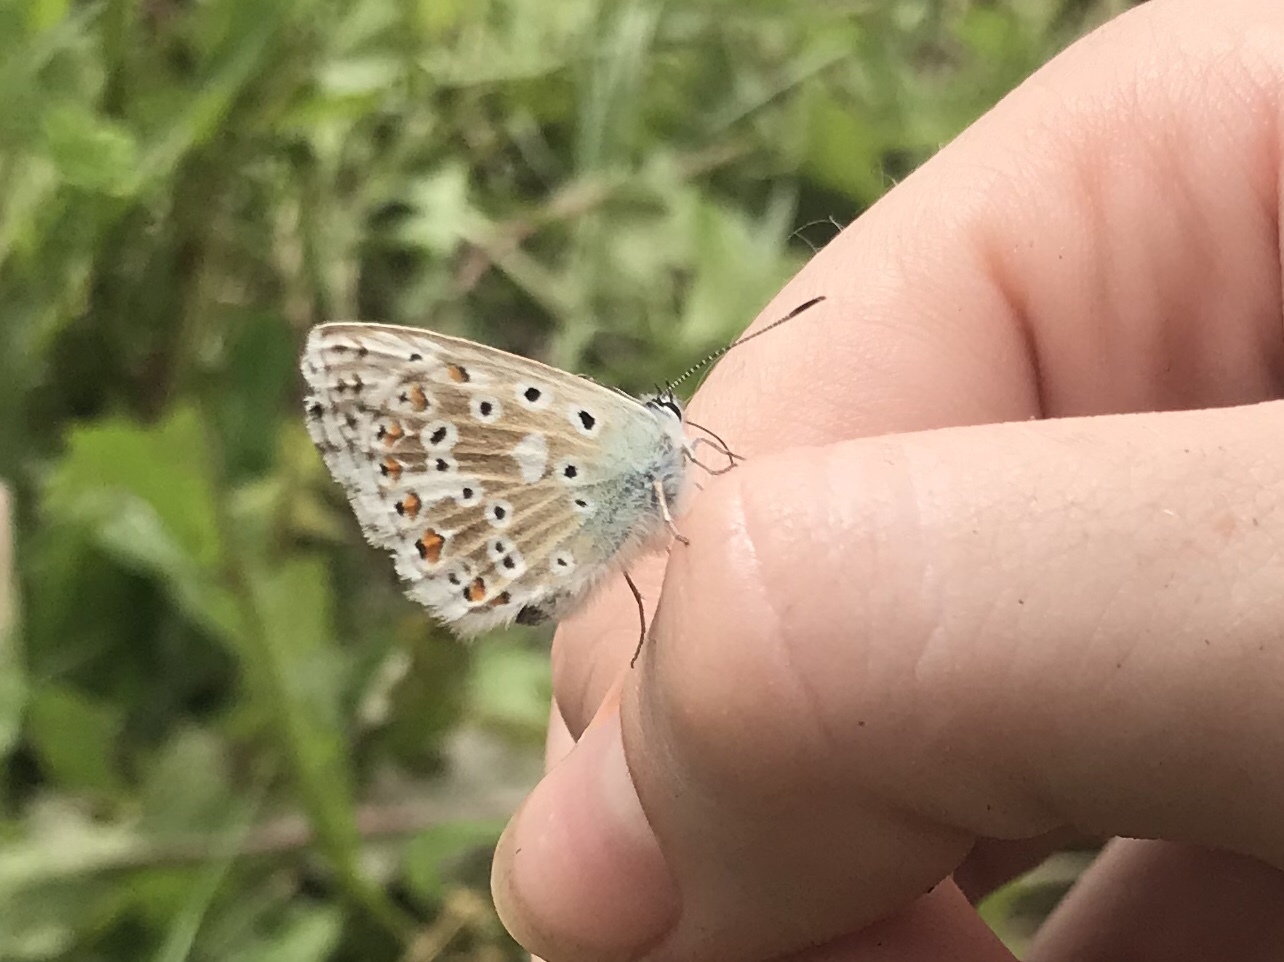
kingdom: Animalia
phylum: Arthropoda
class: Insecta
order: Lepidoptera
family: Lycaenidae
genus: Lysandra
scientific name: Lysandra coridon
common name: Chalkhill blue
